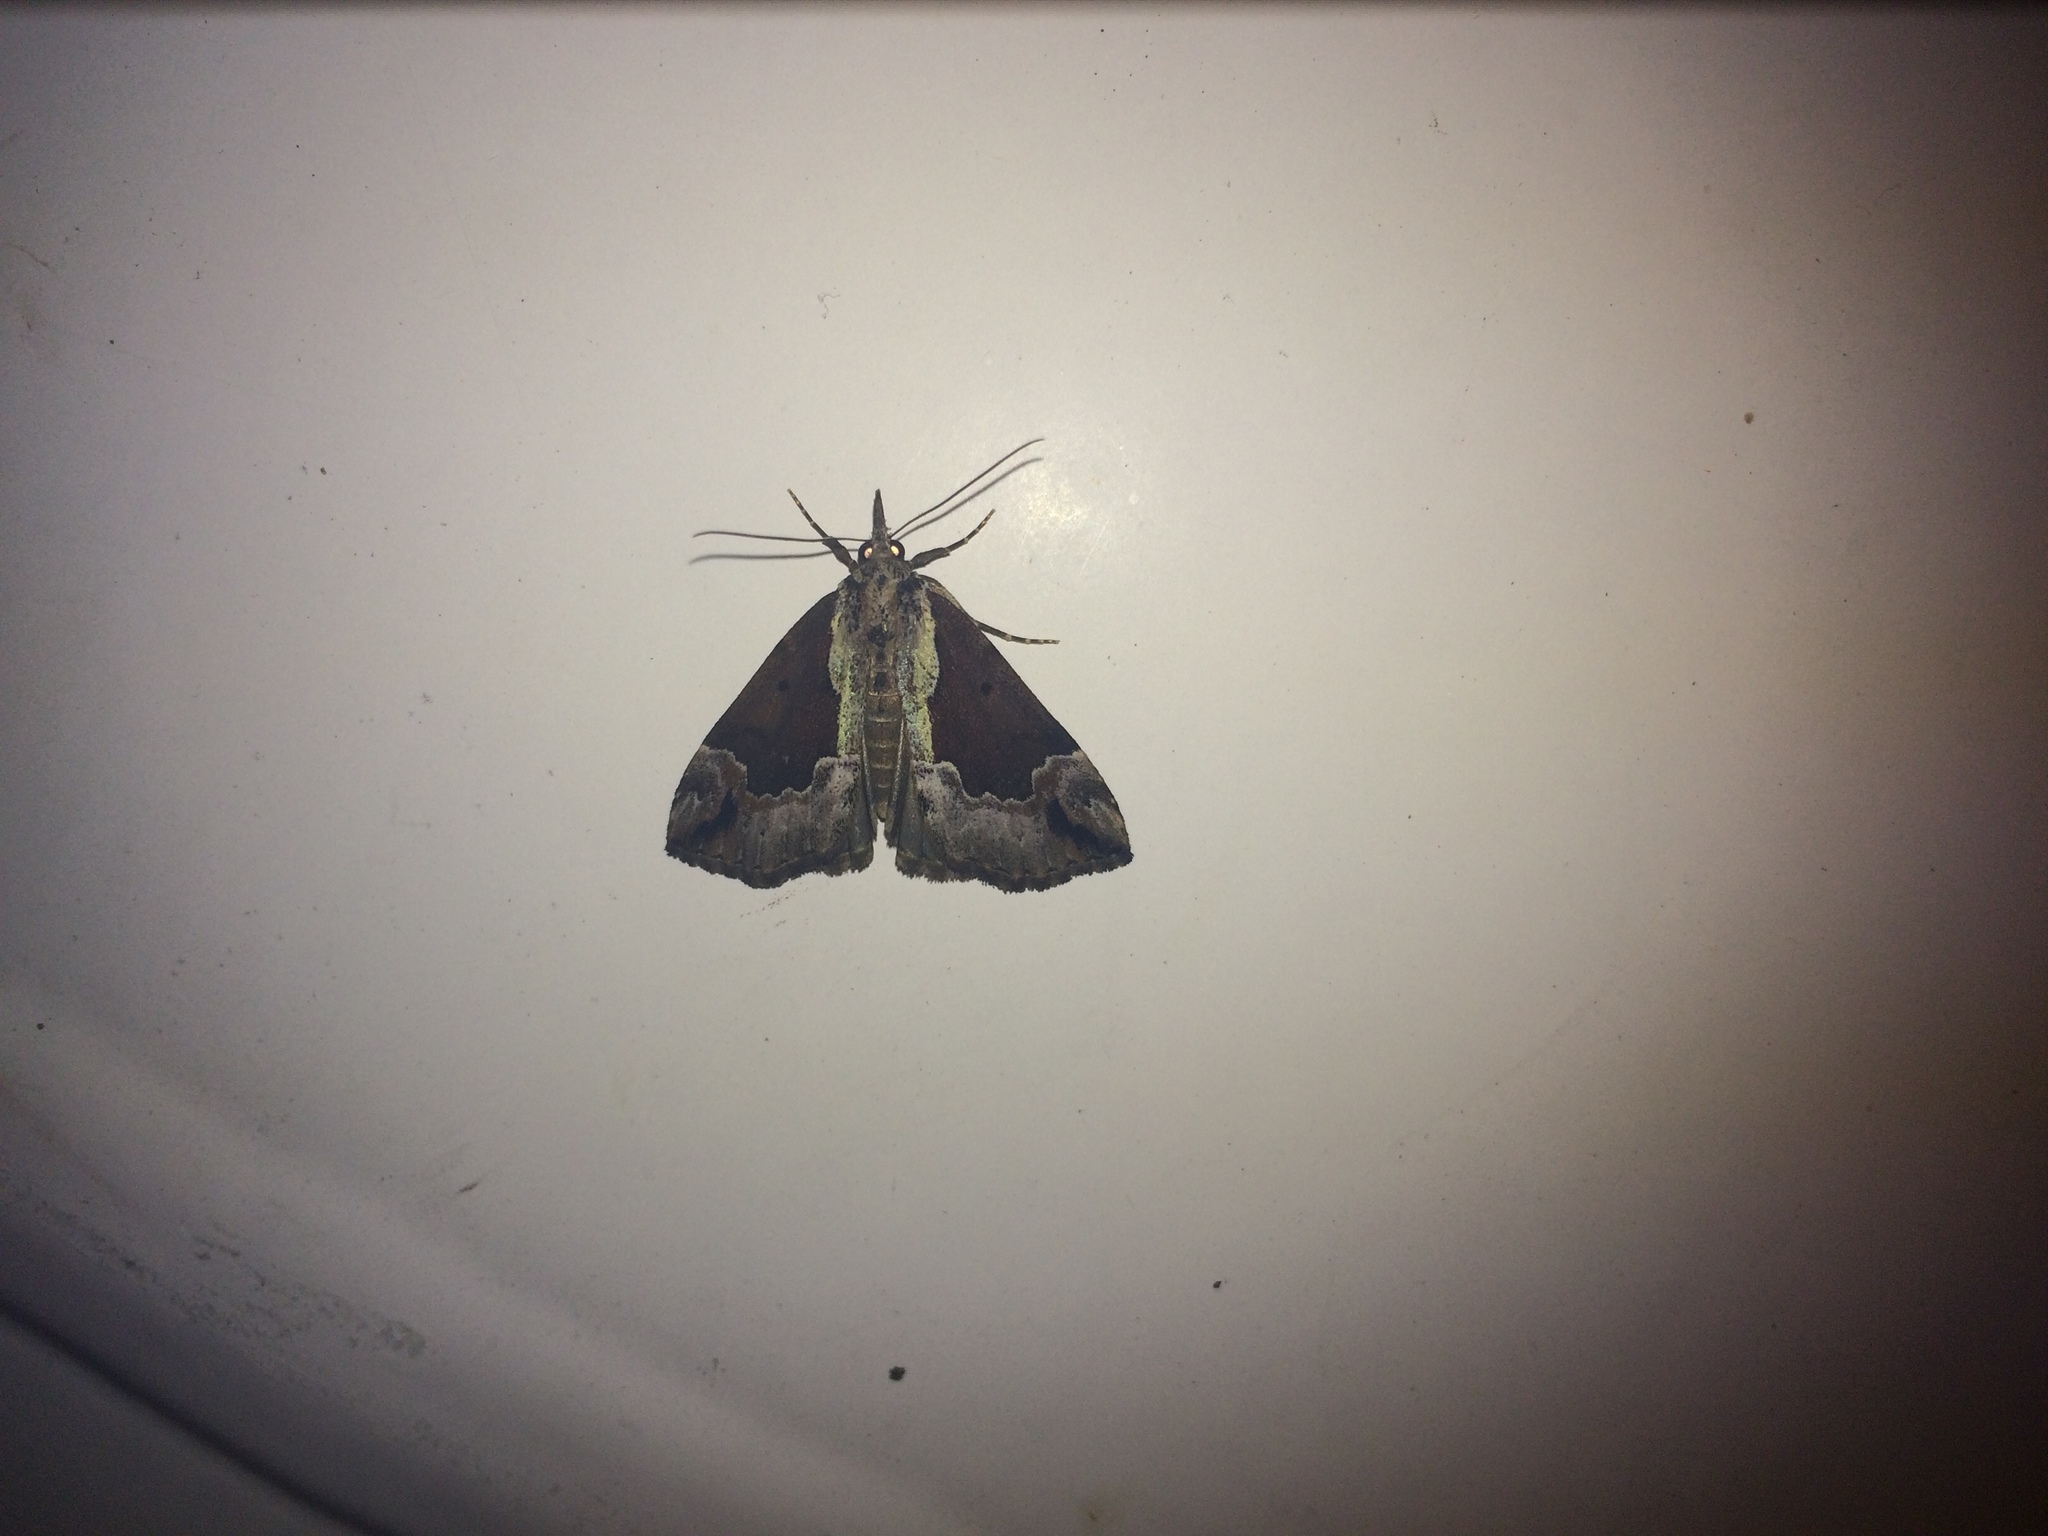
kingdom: Animalia
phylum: Arthropoda
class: Insecta
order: Lepidoptera
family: Erebidae
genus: Hypena
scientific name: Hypena baltimoralis
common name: Baltimore snout
